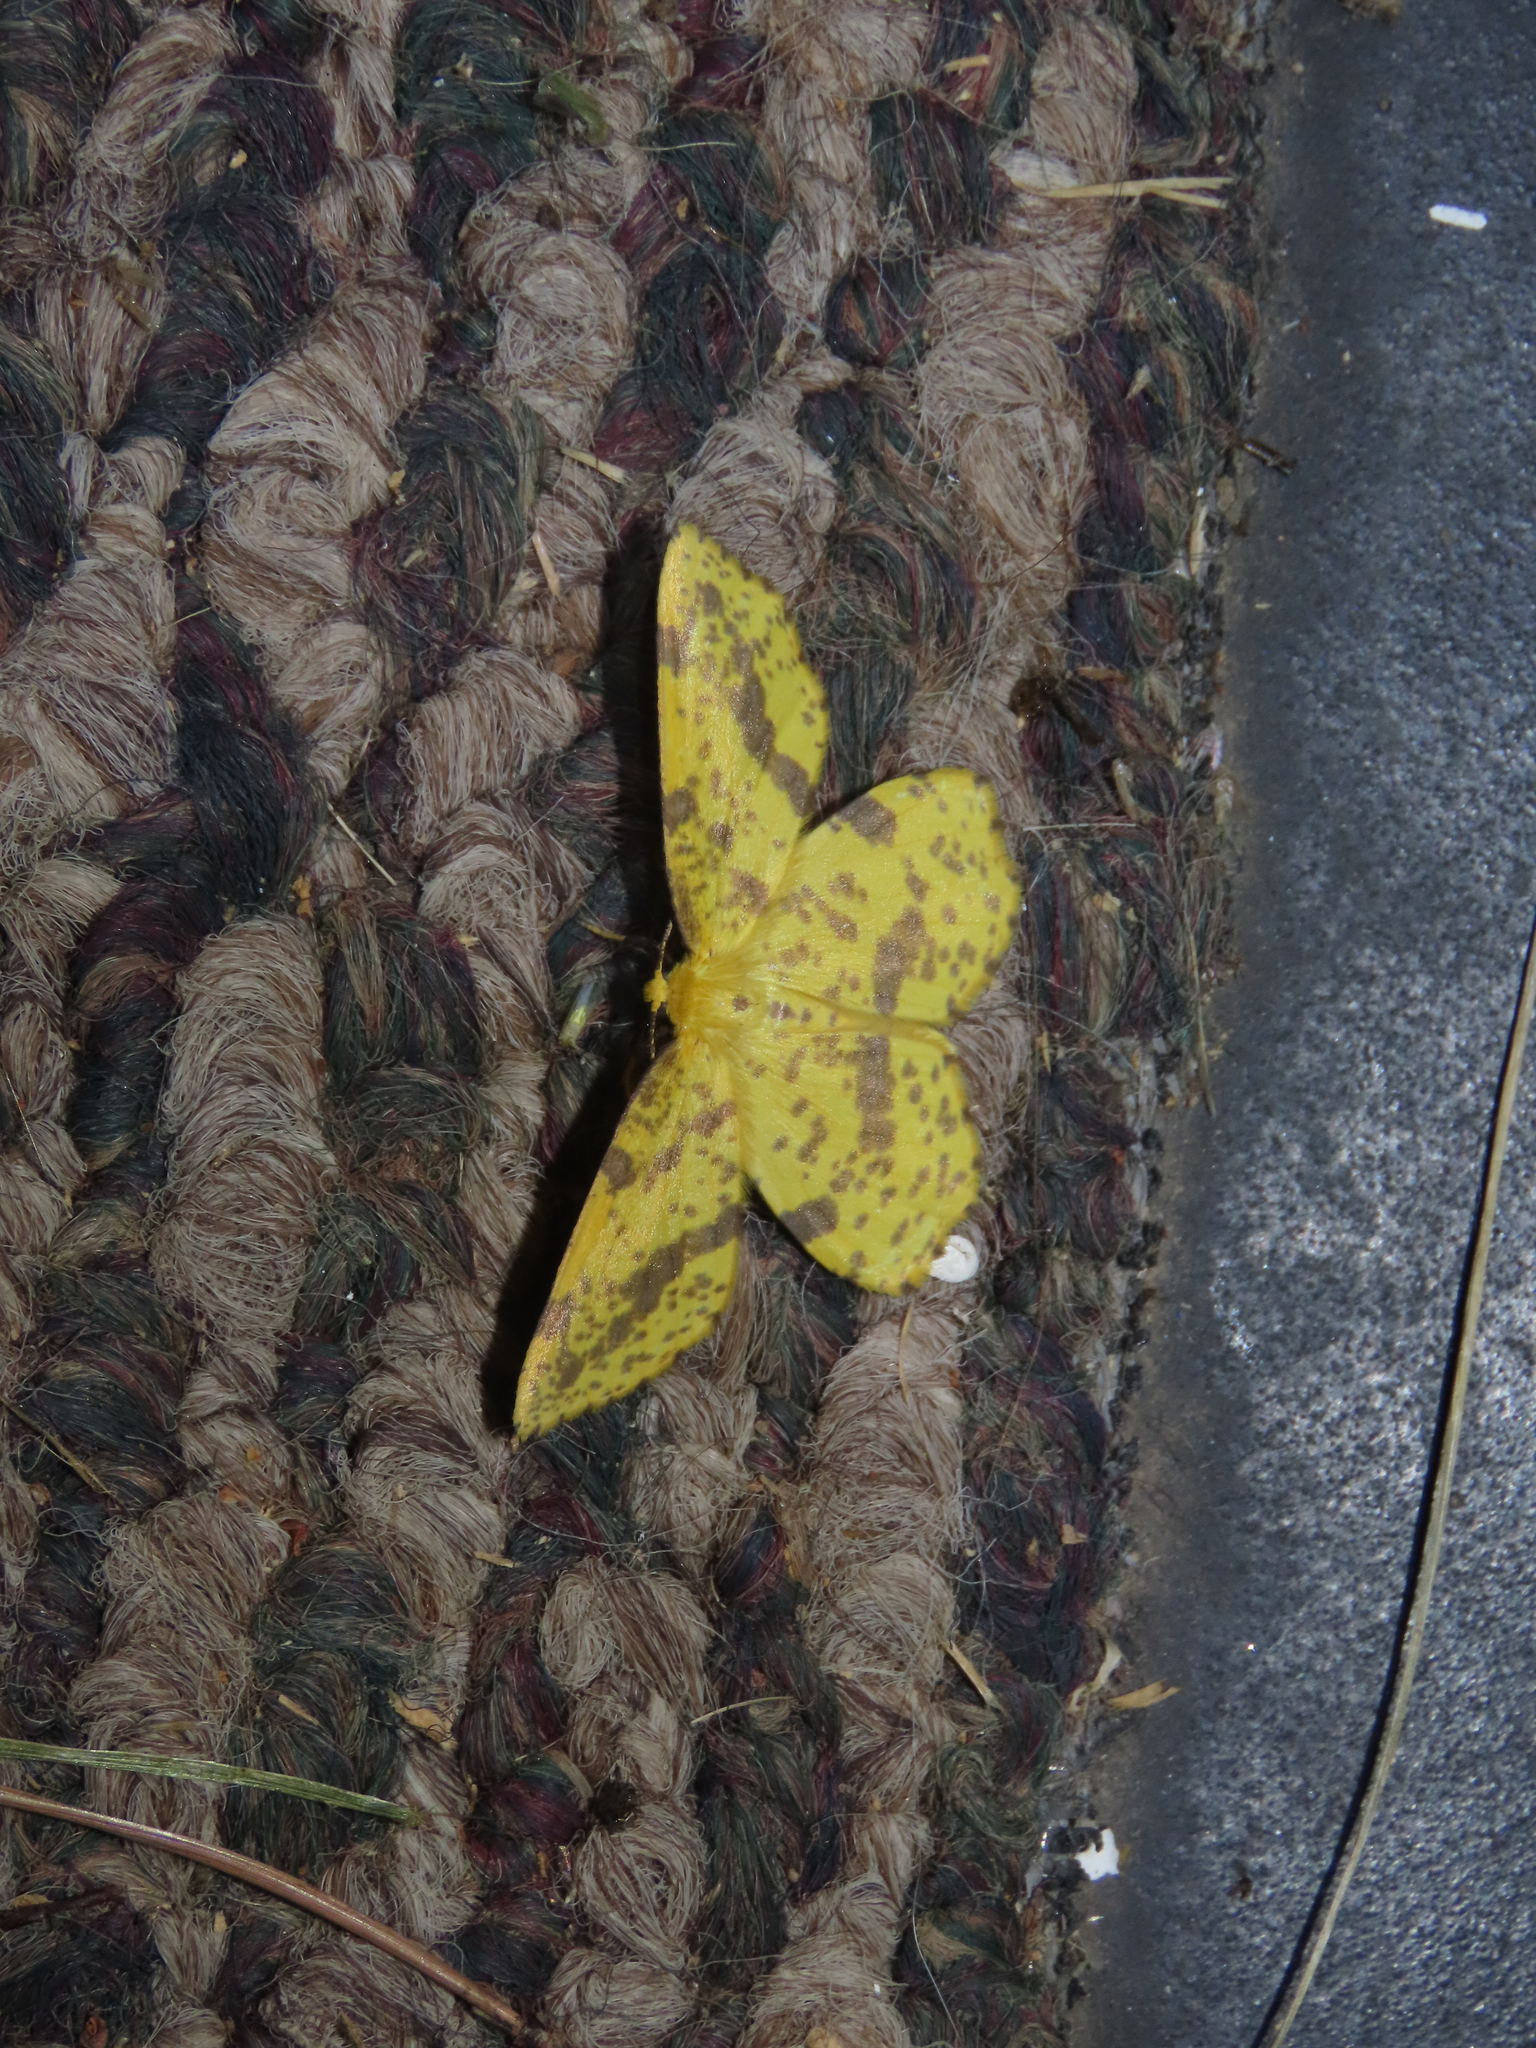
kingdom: Animalia
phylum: Arthropoda
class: Insecta
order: Lepidoptera
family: Geometridae
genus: Xanthotype
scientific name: Xanthotype
